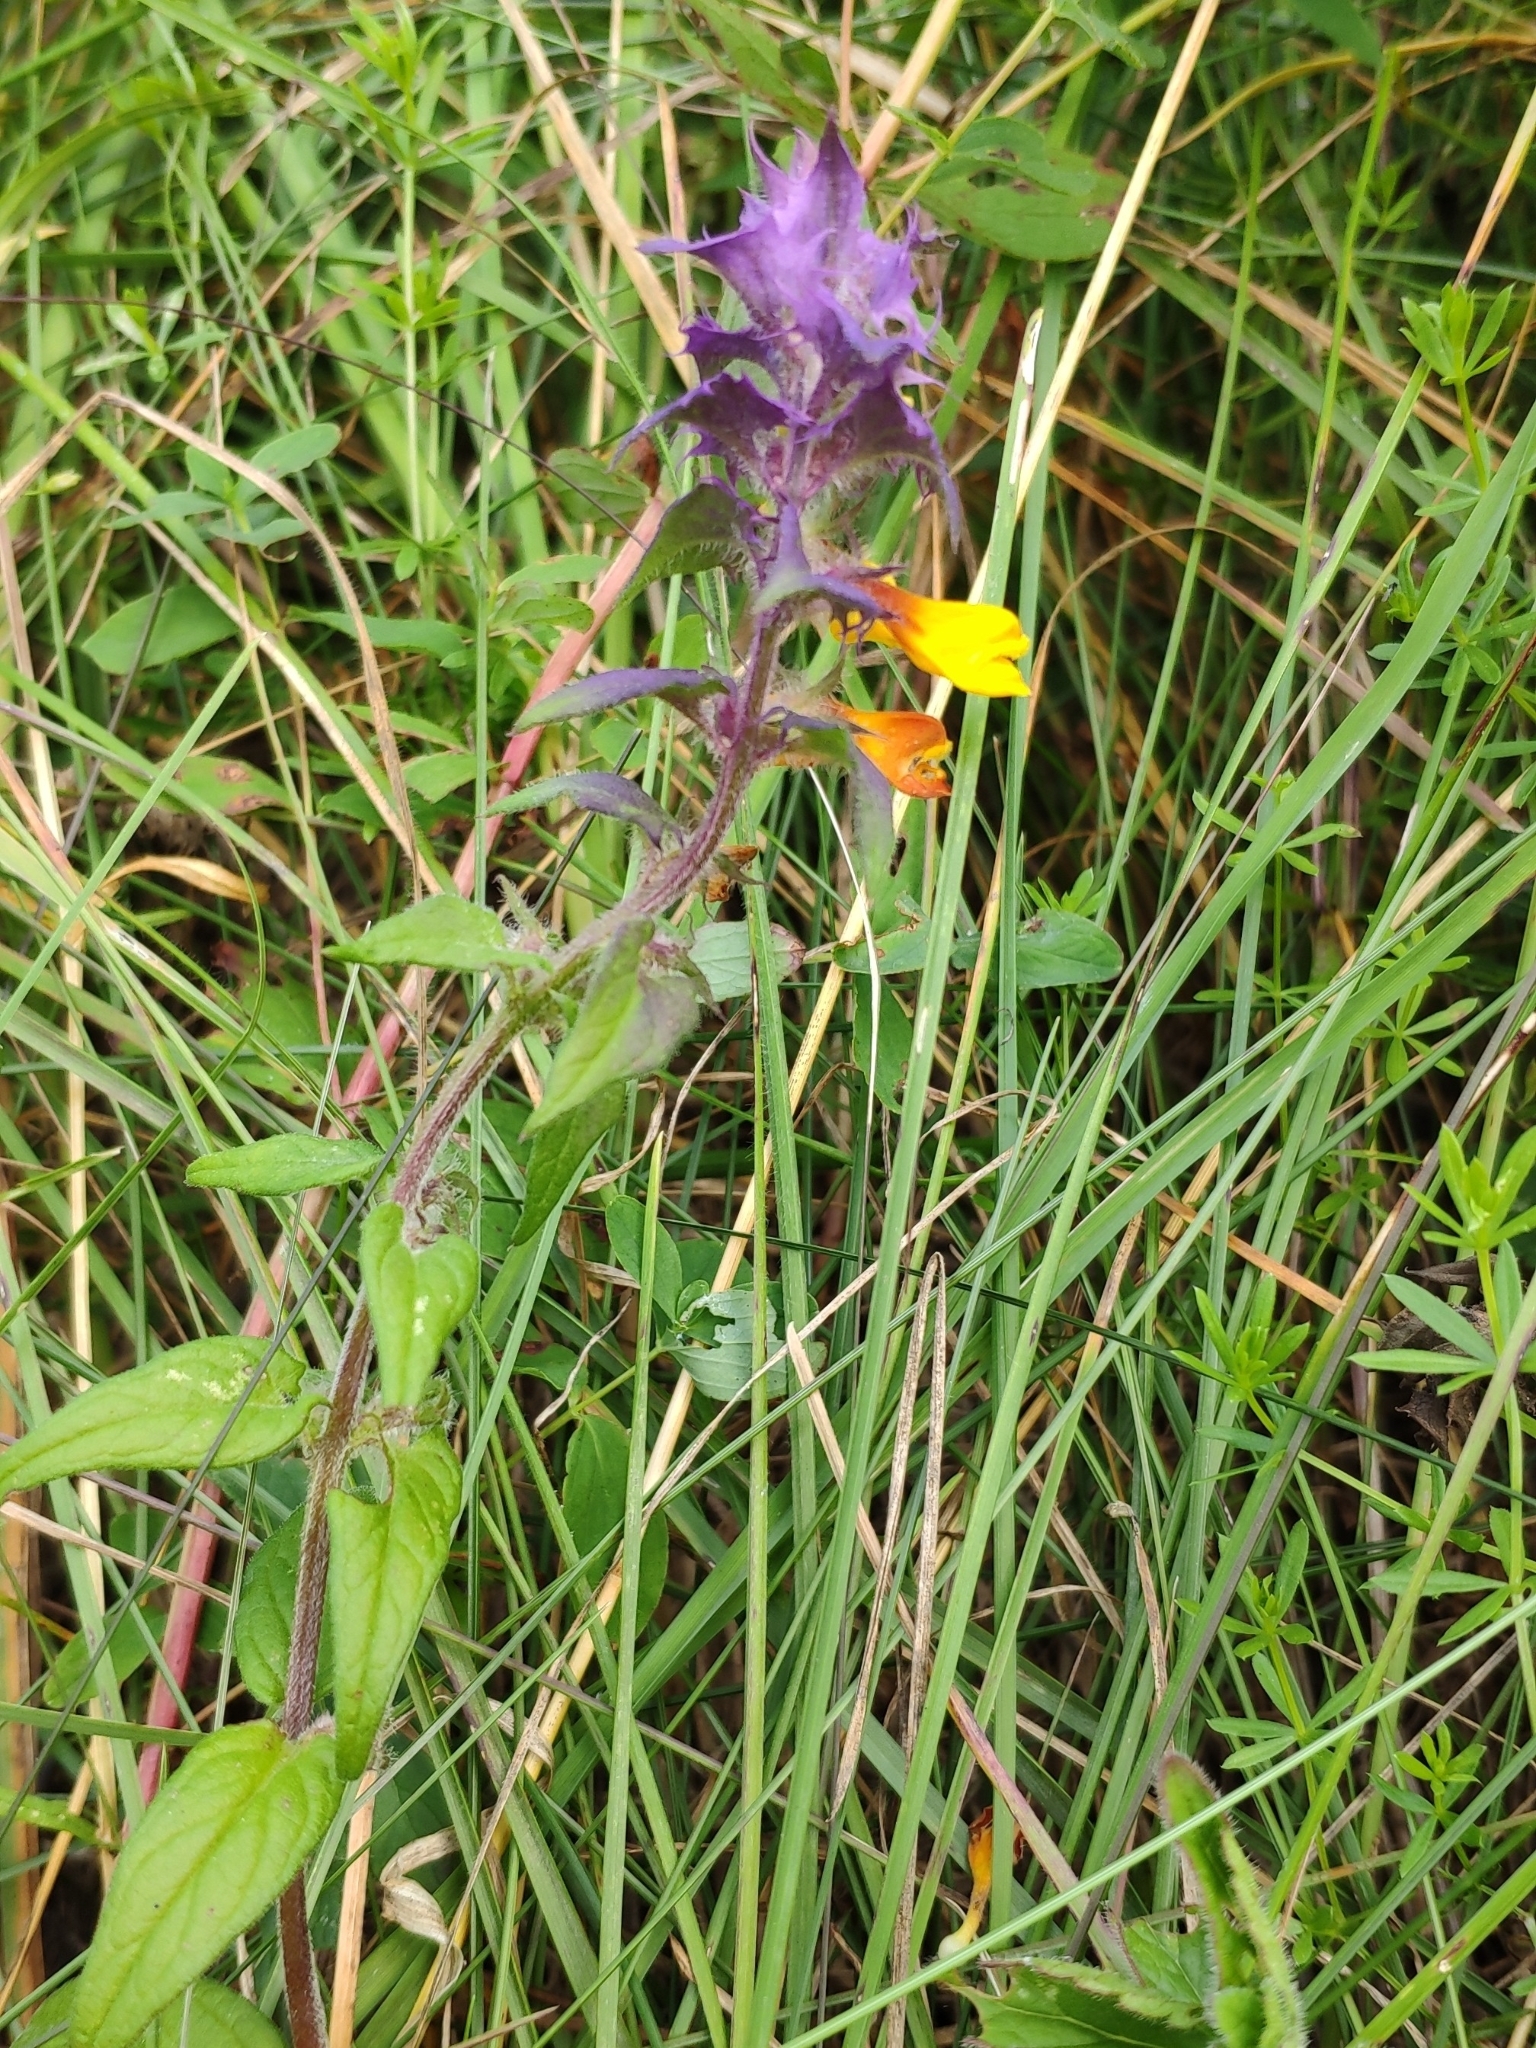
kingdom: Plantae
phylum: Tracheophyta
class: Magnoliopsida
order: Lamiales
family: Orobanchaceae
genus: Melampyrum
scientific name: Melampyrum nemorosum
